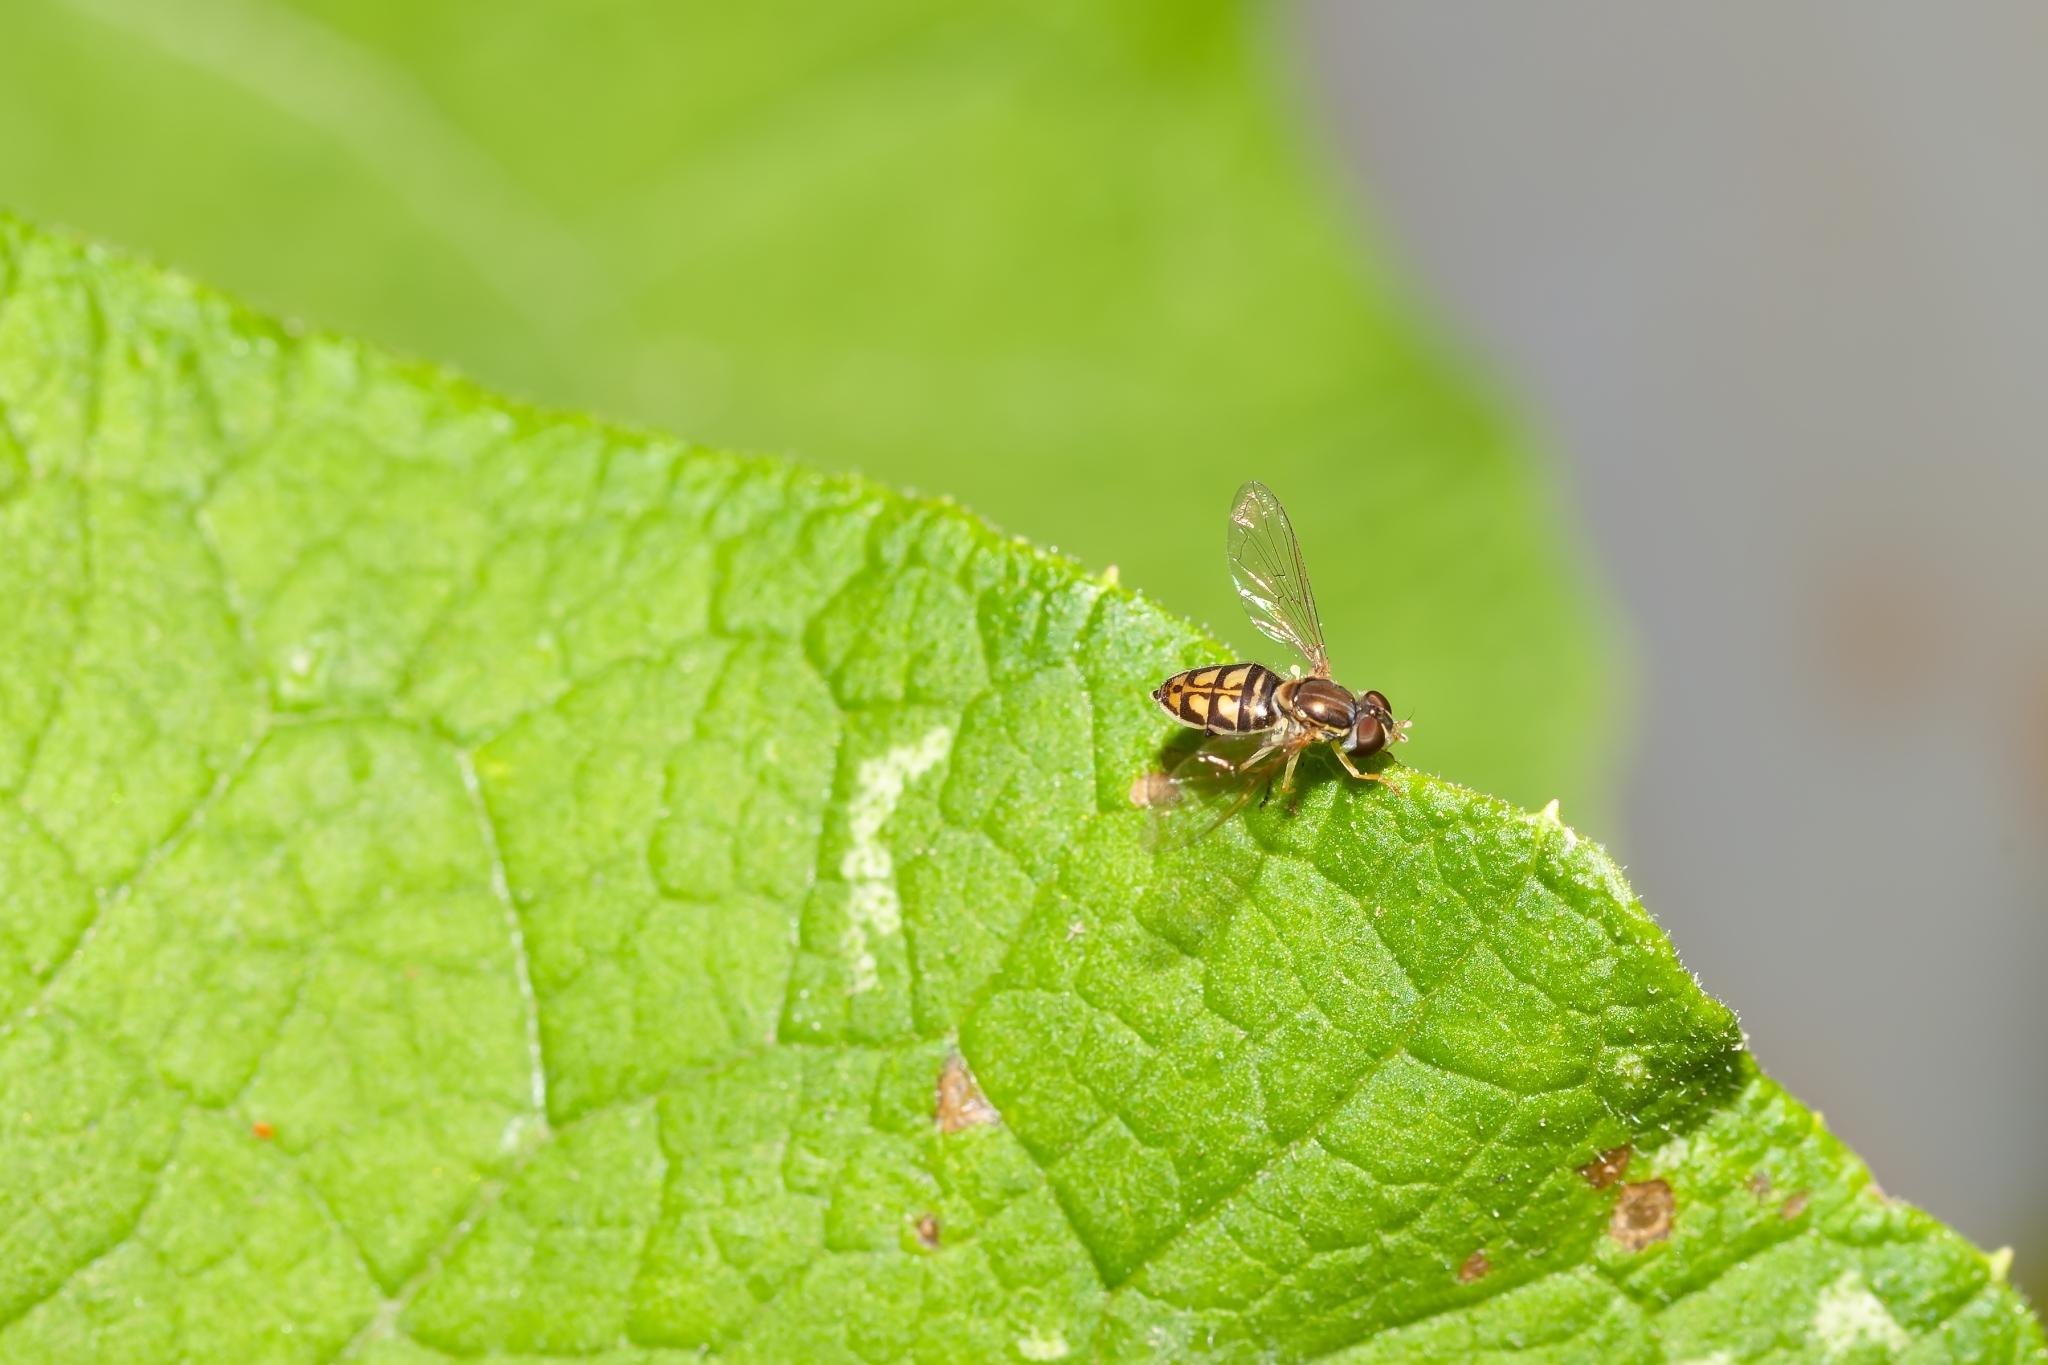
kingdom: Animalia
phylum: Arthropoda
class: Insecta
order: Diptera
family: Syrphidae
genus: Toxomerus
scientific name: Toxomerus marginatus
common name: Syrphid fly
